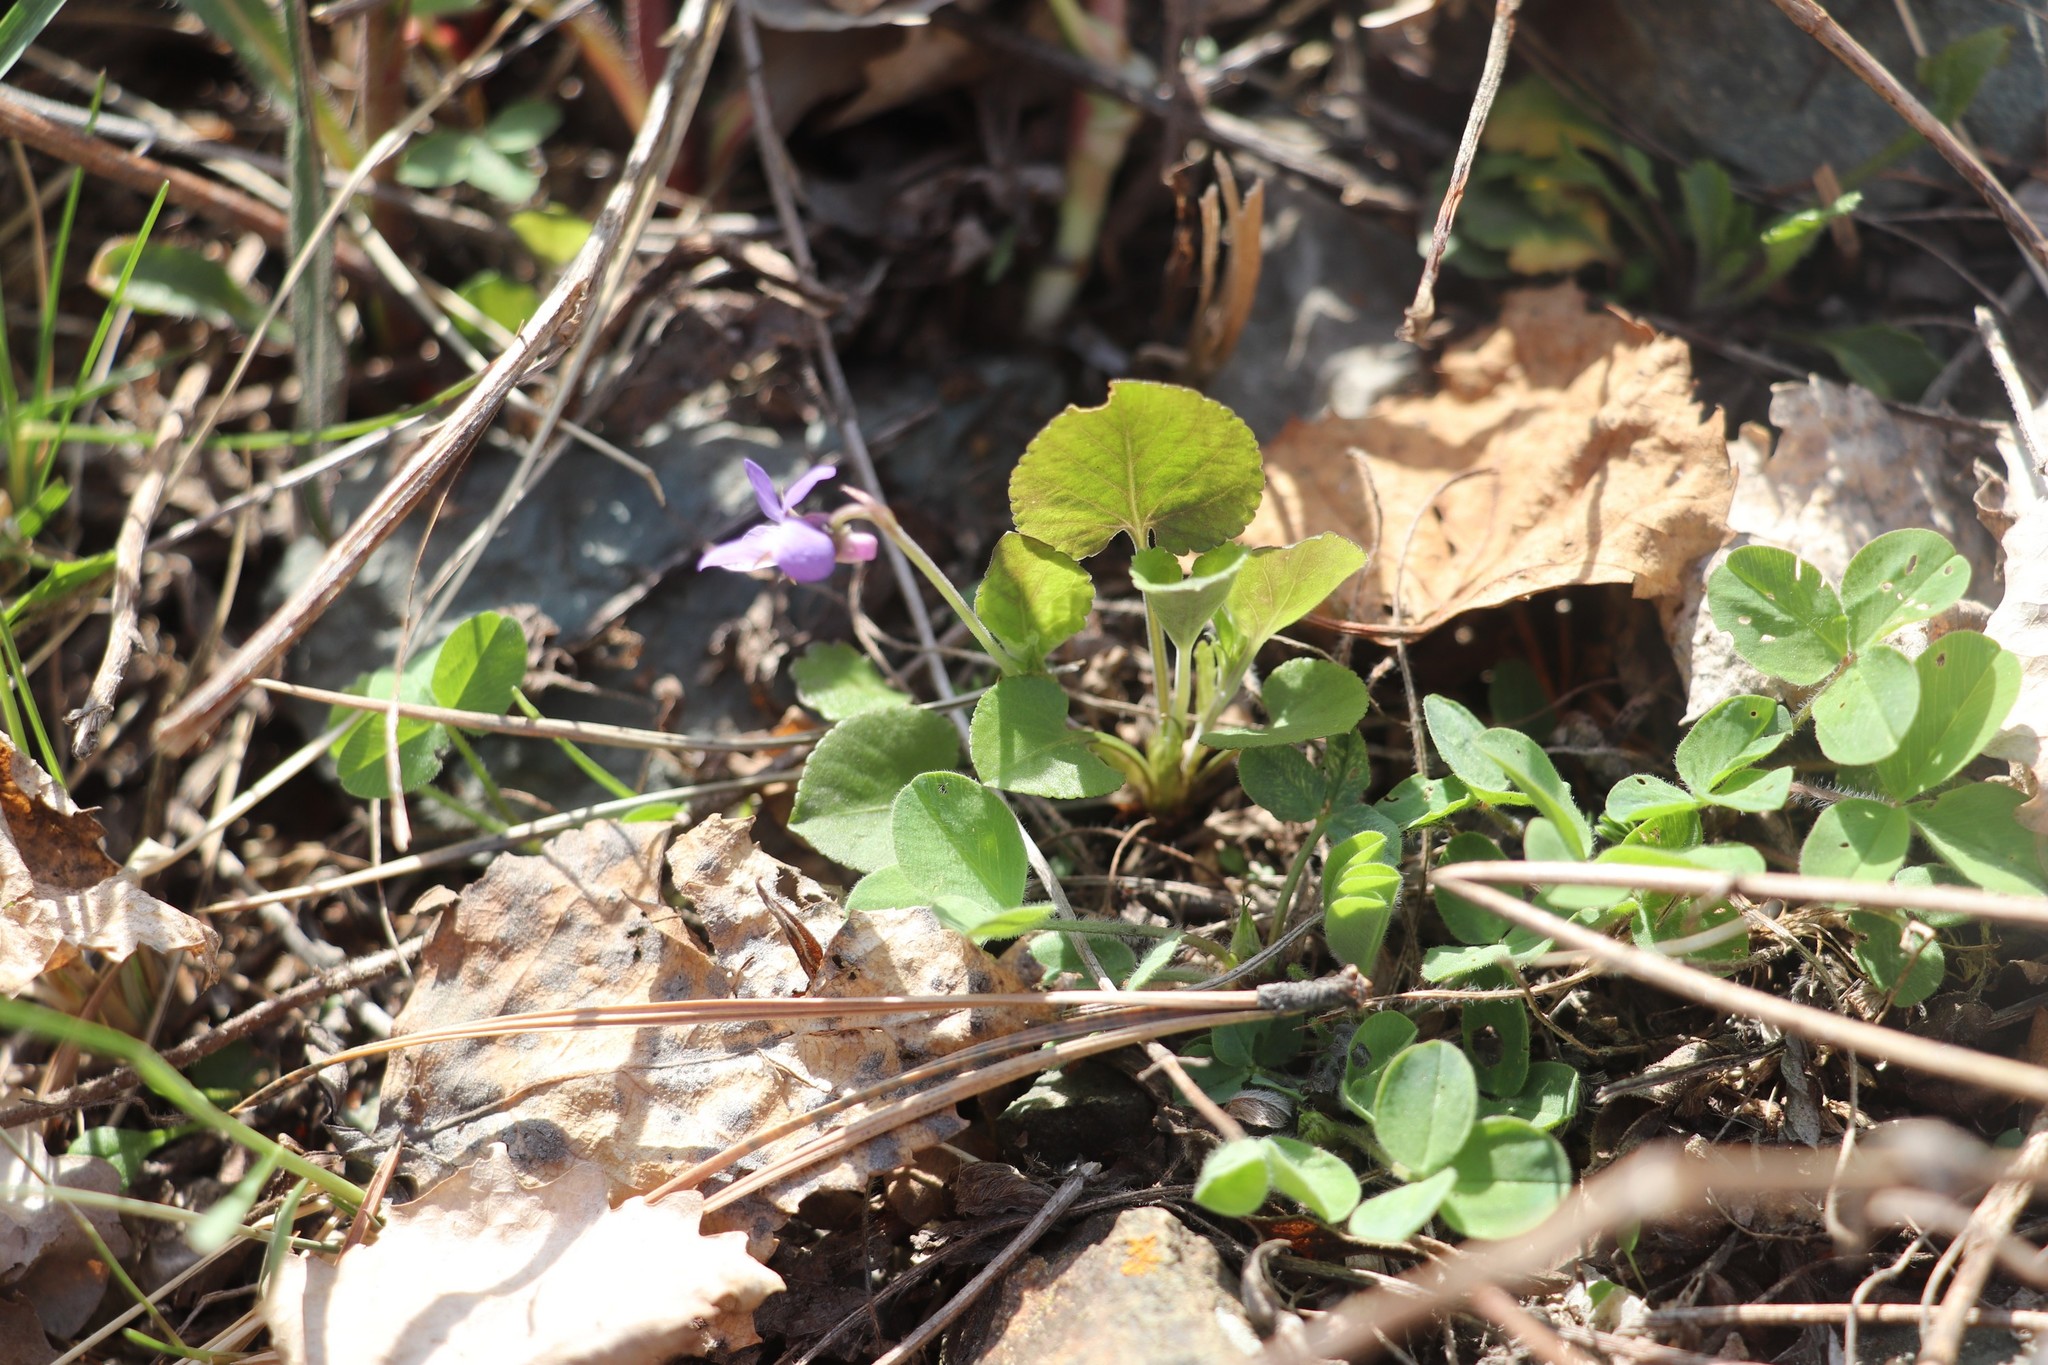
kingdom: Plantae
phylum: Tracheophyta
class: Magnoliopsida
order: Malpighiales
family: Violaceae
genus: Viola
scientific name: Viola rupestris
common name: Teesdale violet
